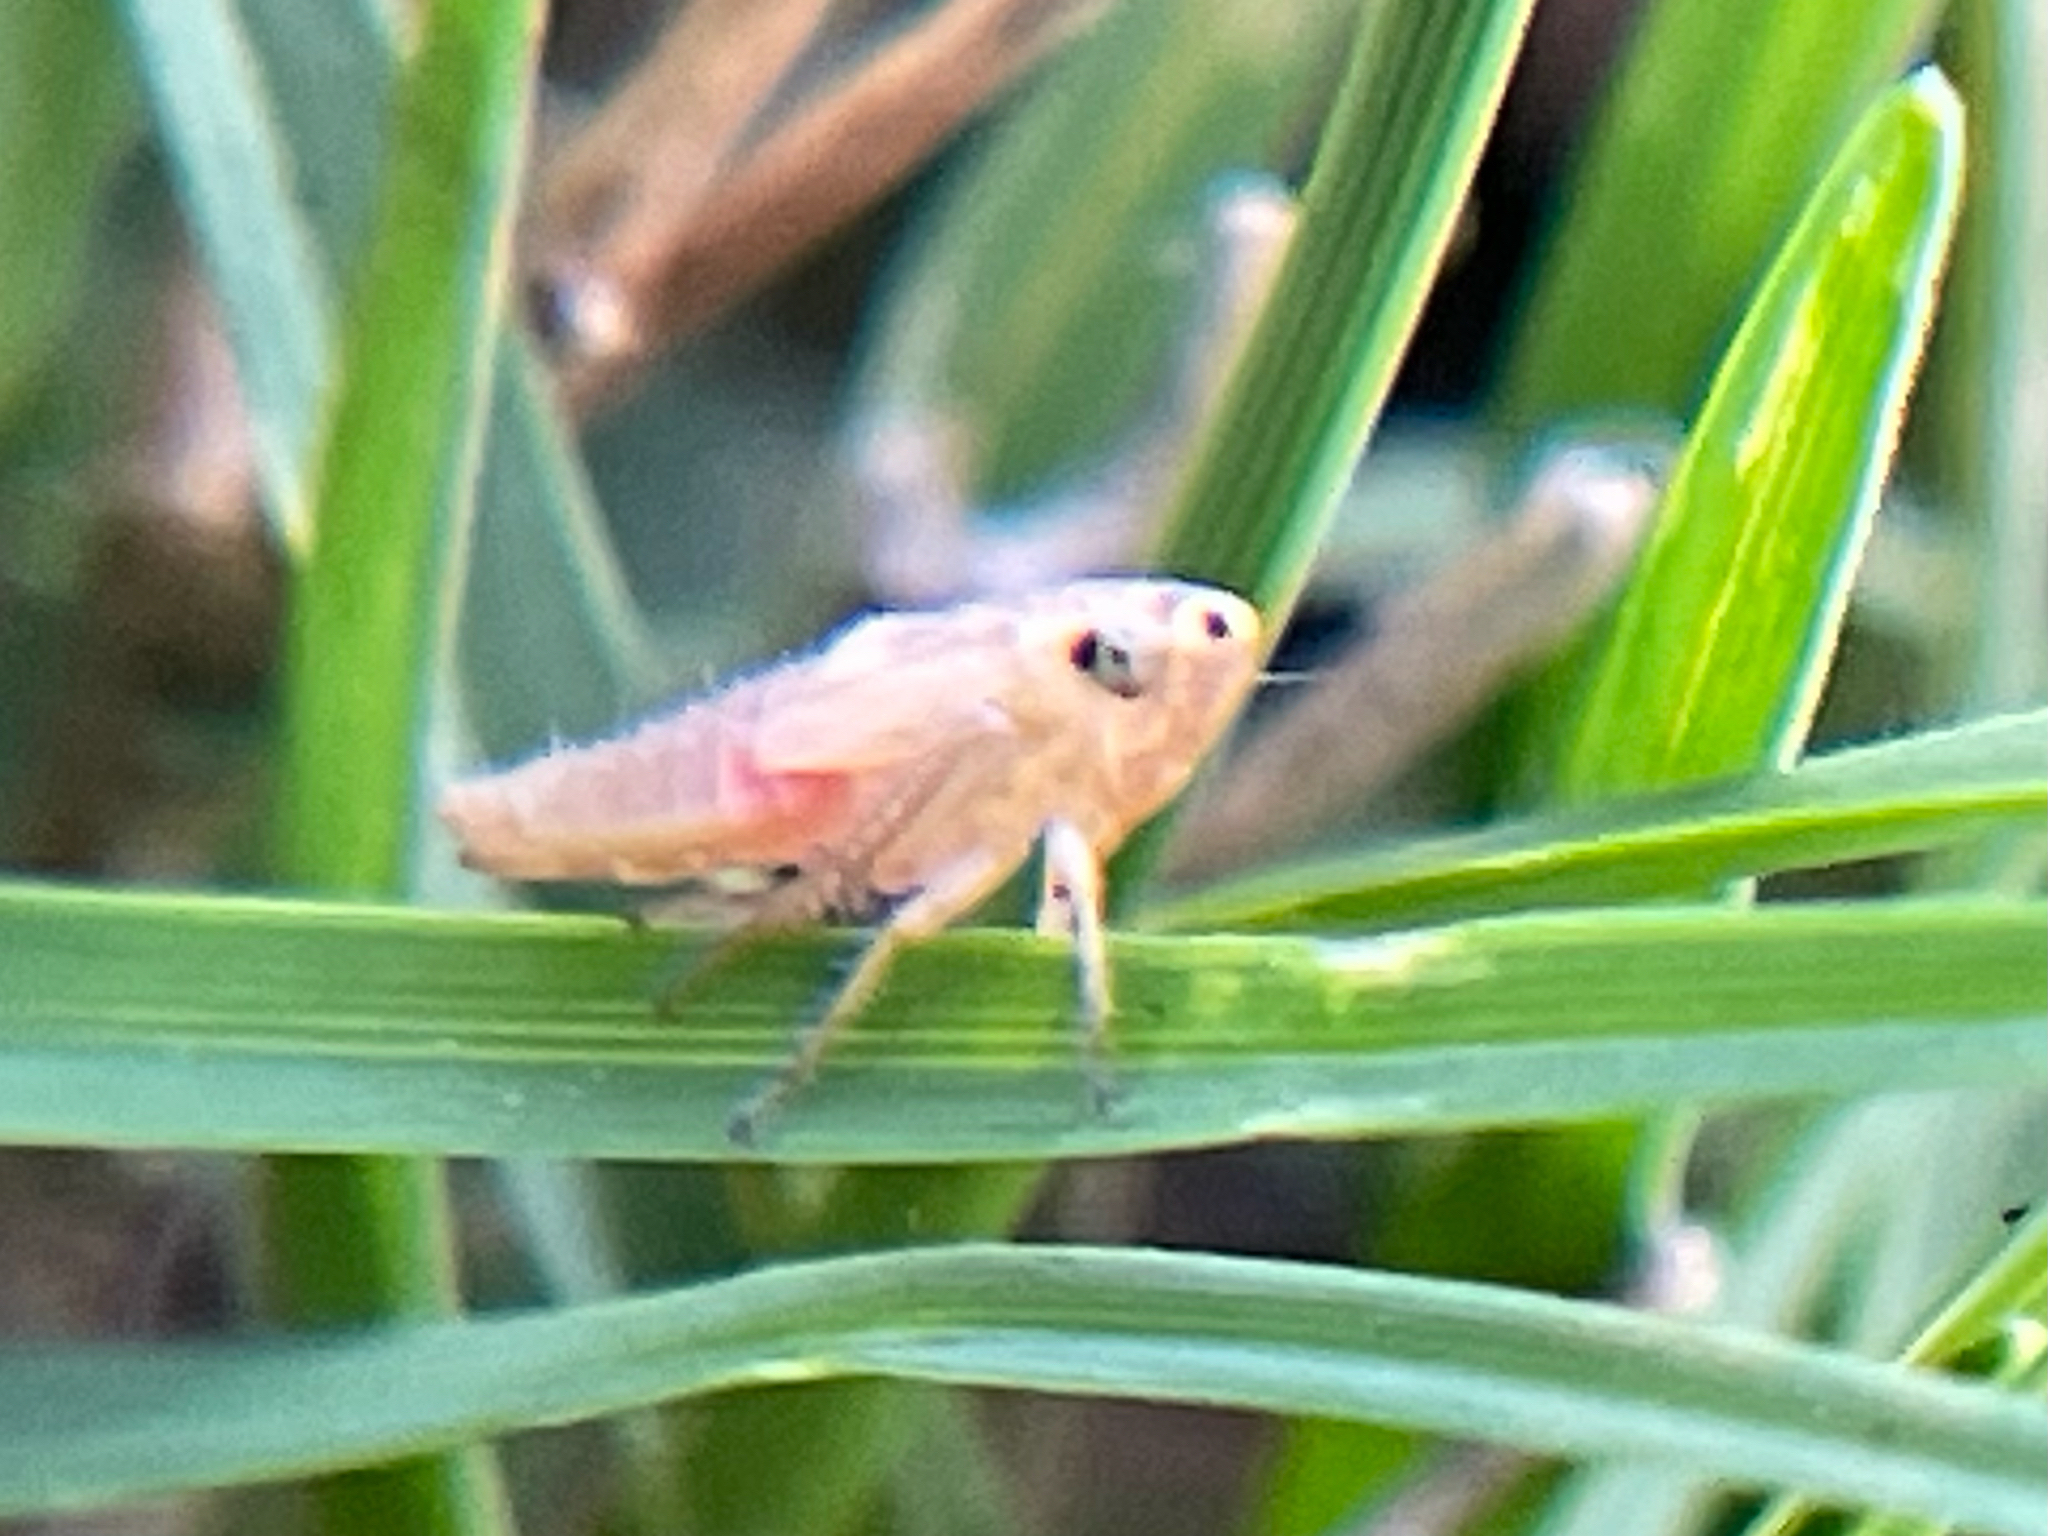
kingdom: Animalia
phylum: Arthropoda
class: Insecta
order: Hemiptera
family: Cicadellidae
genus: Exitianus
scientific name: Exitianus exitiosus
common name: Gray lawn leafhopper
